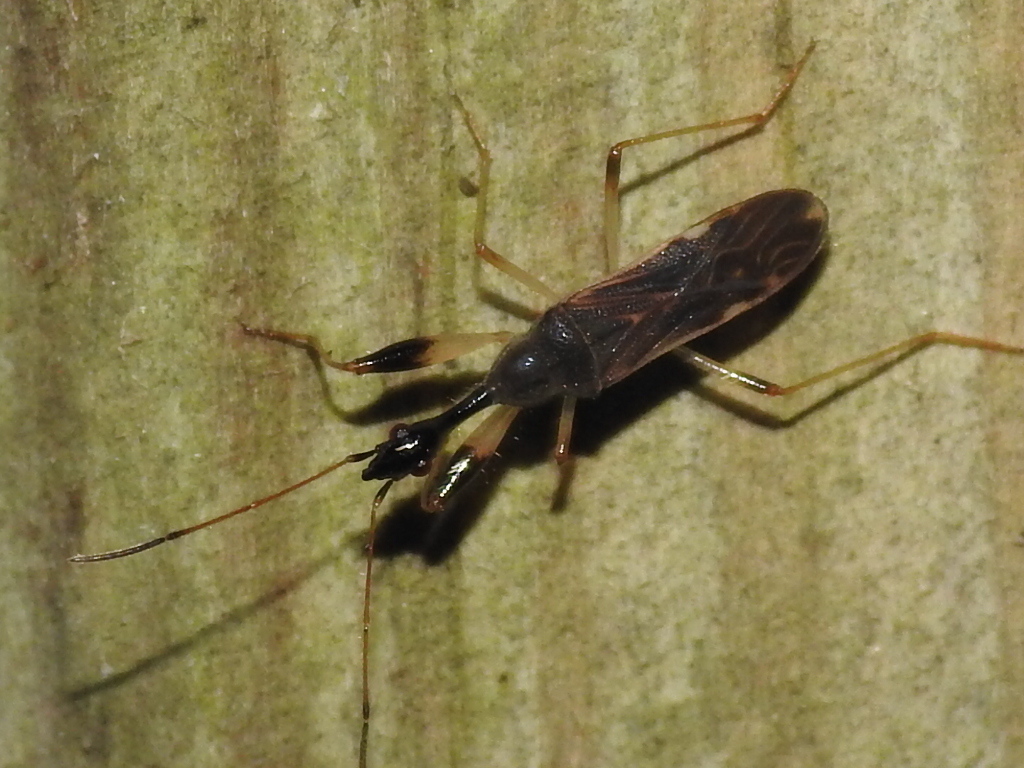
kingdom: Animalia
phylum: Arthropoda
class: Insecta
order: Hemiptera
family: Rhyparochromidae
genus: Myodocha
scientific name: Myodocha serripes
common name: Long-necked seed bug
